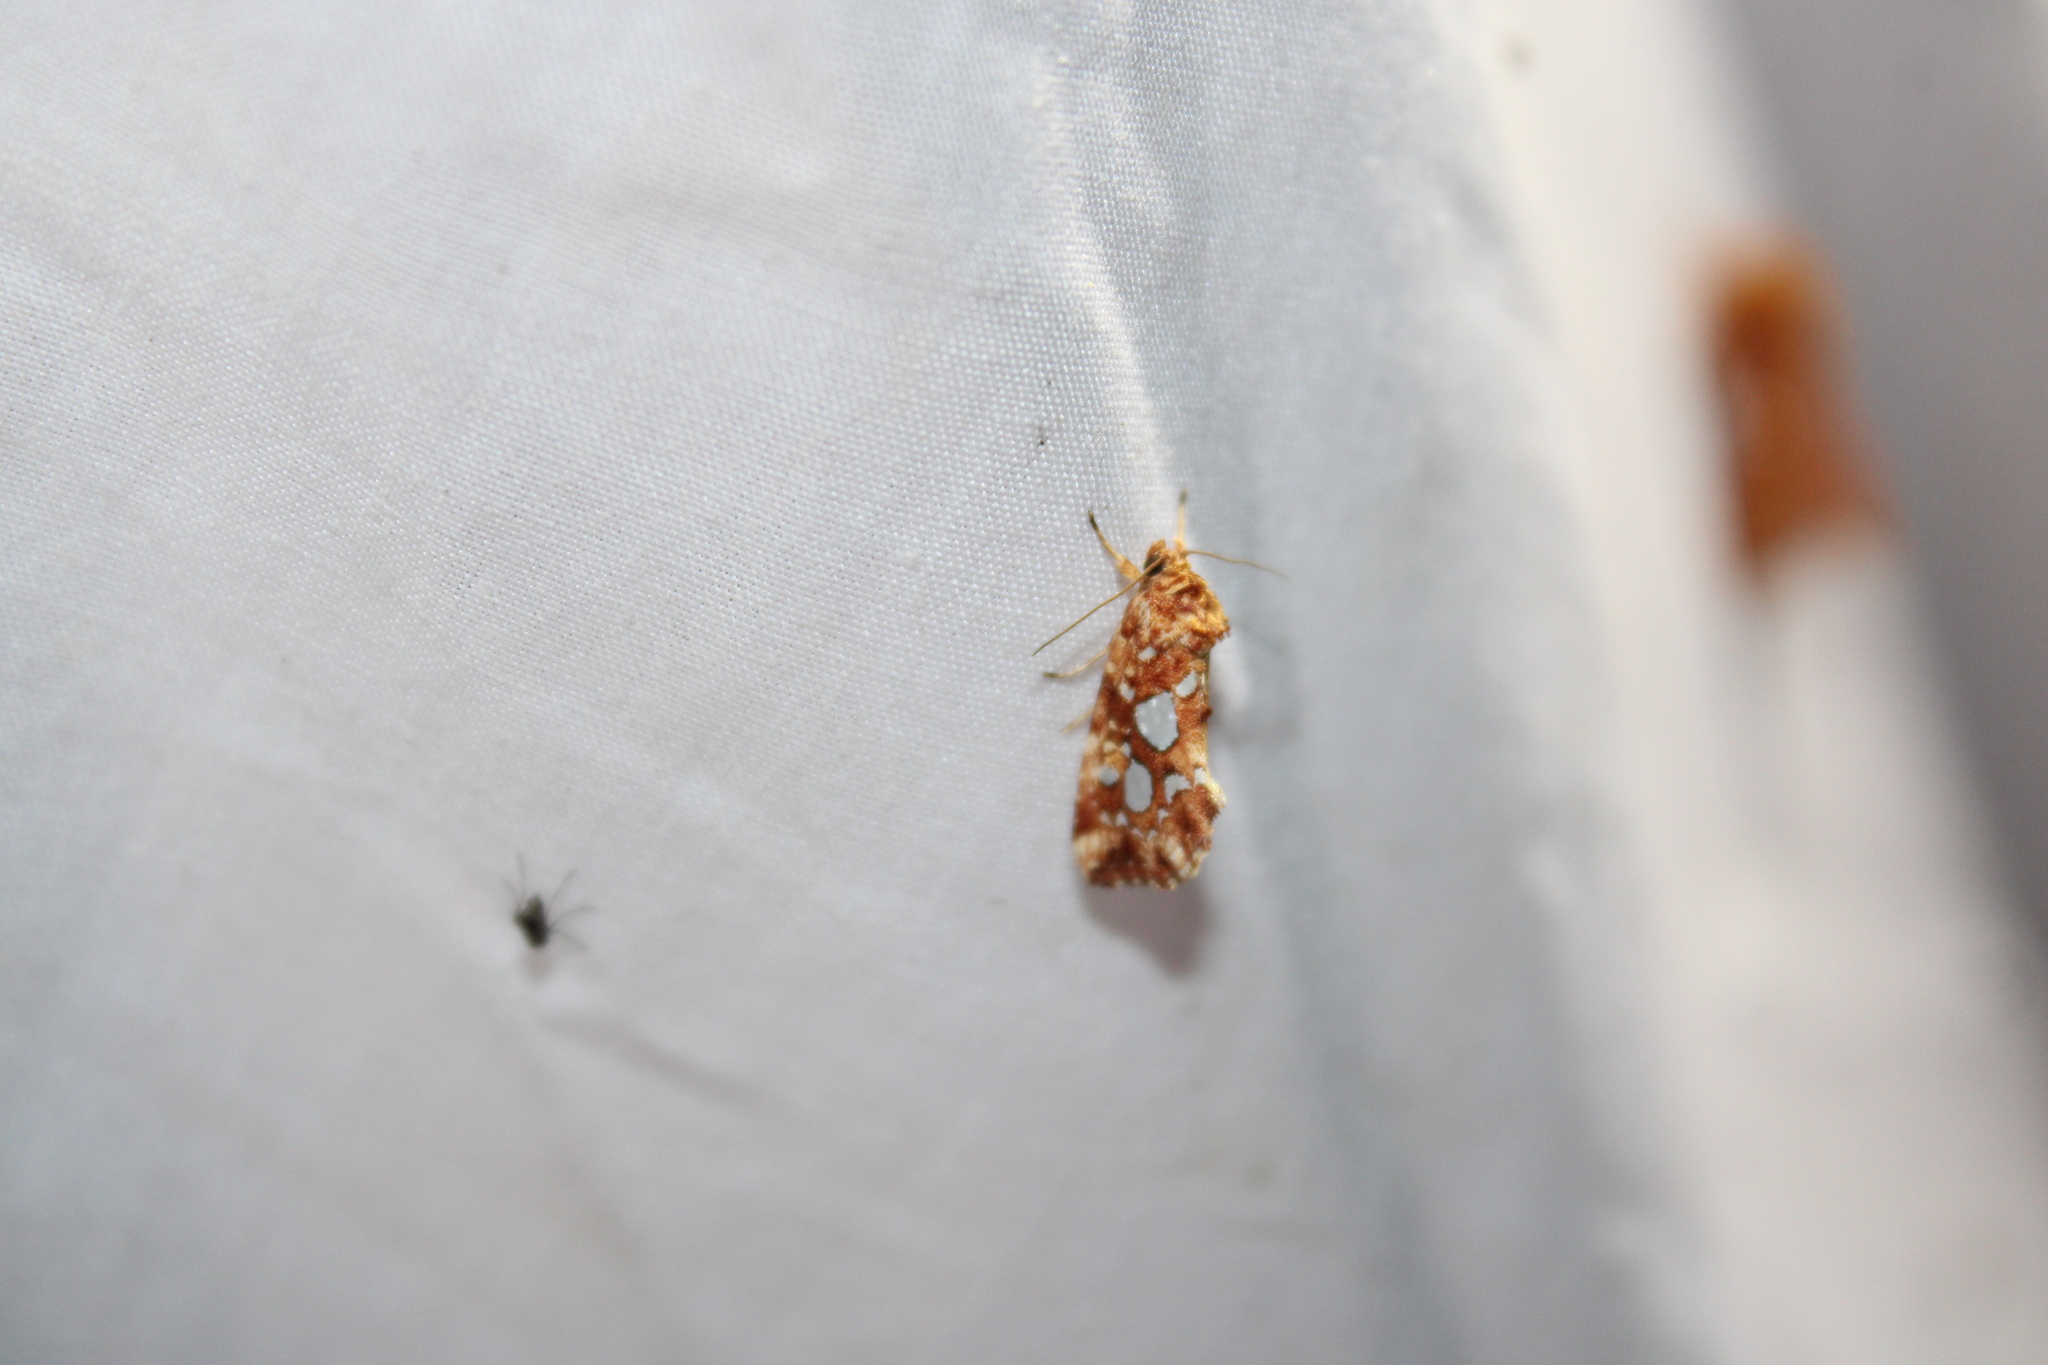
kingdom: Animalia
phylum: Arthropoda
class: Insecta
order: Lepidoptera
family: Noctuidae
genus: Callopistria
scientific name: Callopistria cordata
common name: Silver-spotted fern moth
